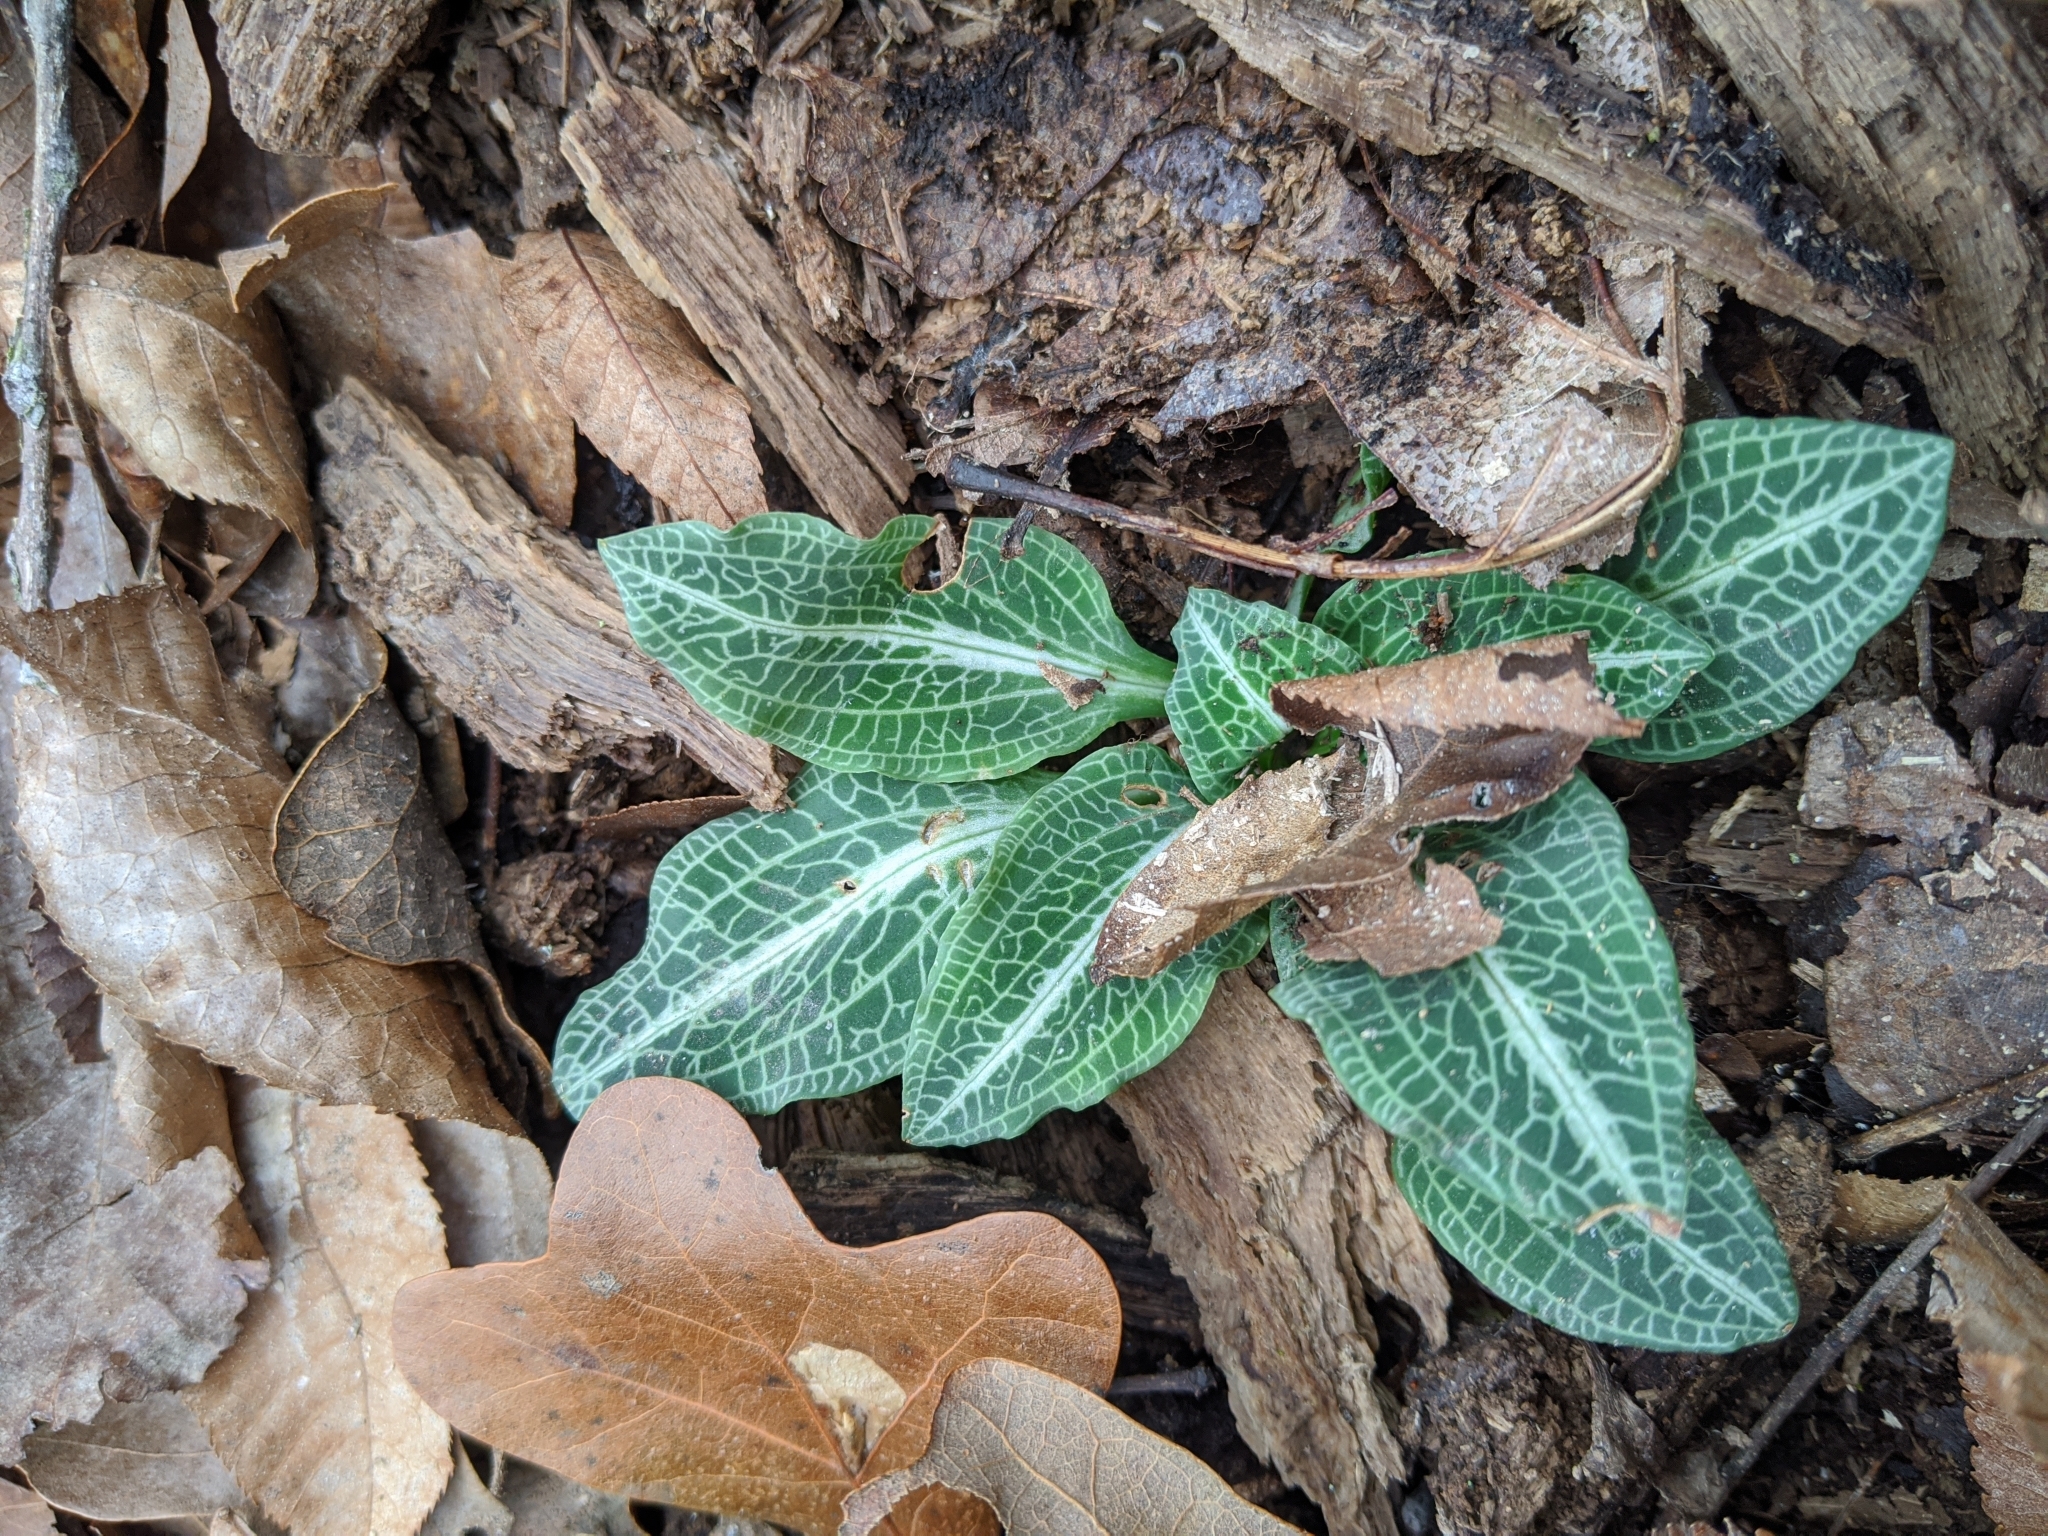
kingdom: Plantae
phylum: Tracheophyta
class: Liliopsida
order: Asparagales
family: Orchidaceae
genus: Goodyera
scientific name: Goodyera pubescens
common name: Downy rattlesnake-plantain
